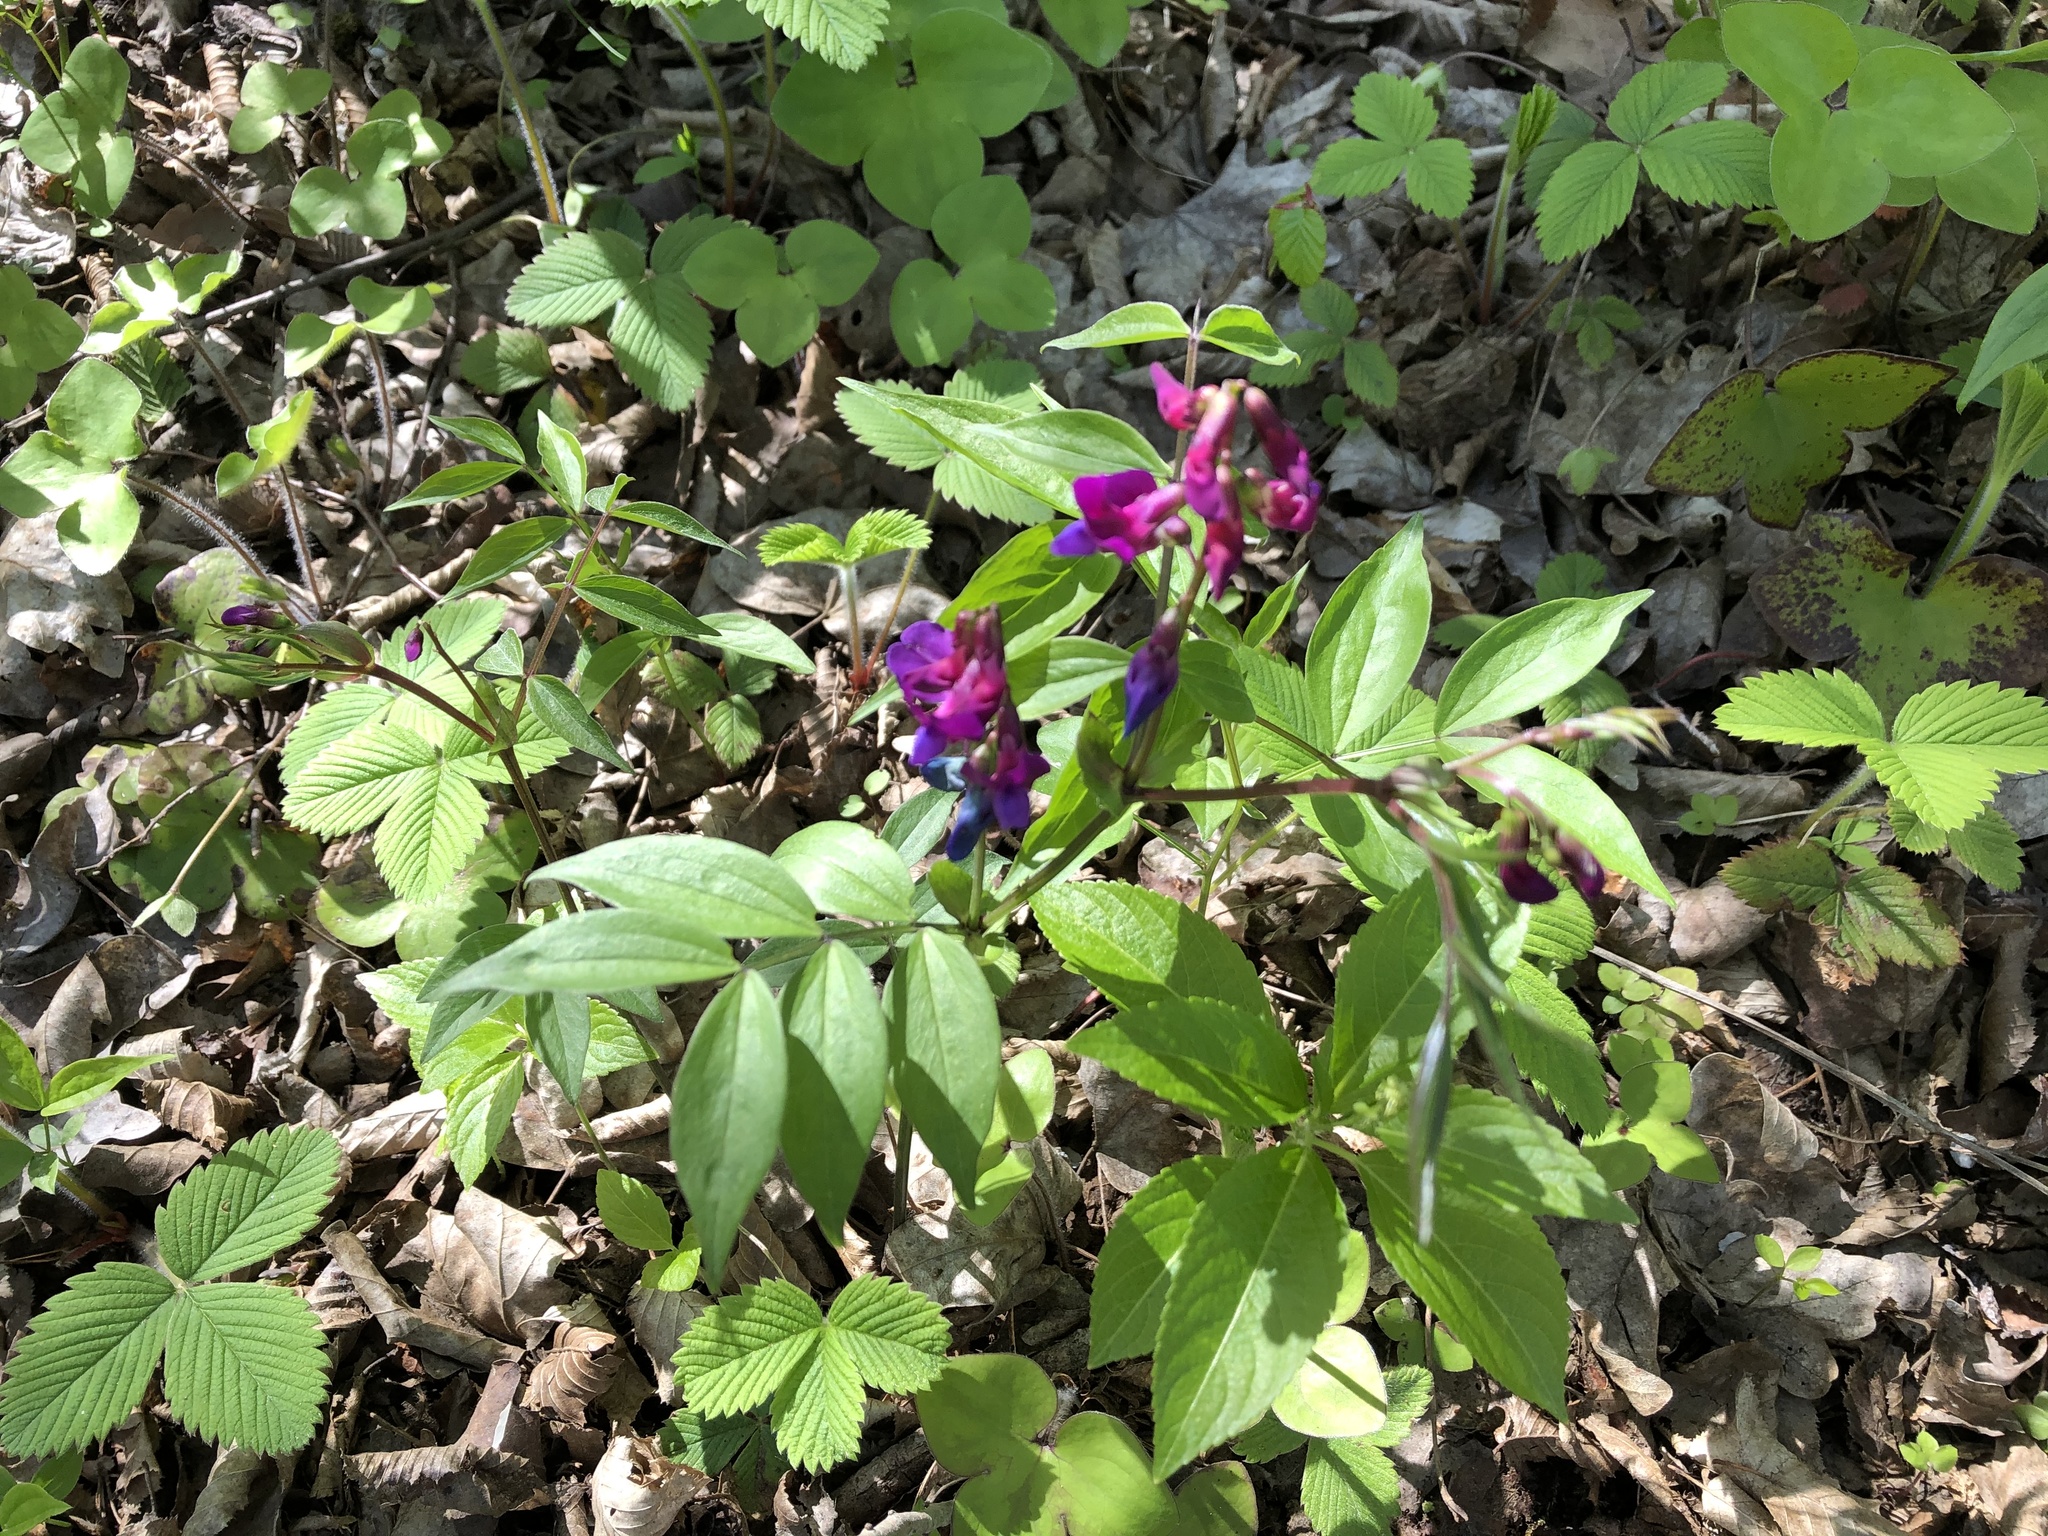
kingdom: Plantae
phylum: Tracheophyta
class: Magnoliopsida
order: Fabales
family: Fabaceae
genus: Lathyrus
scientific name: Lathyrus vernus
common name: Spring pea
